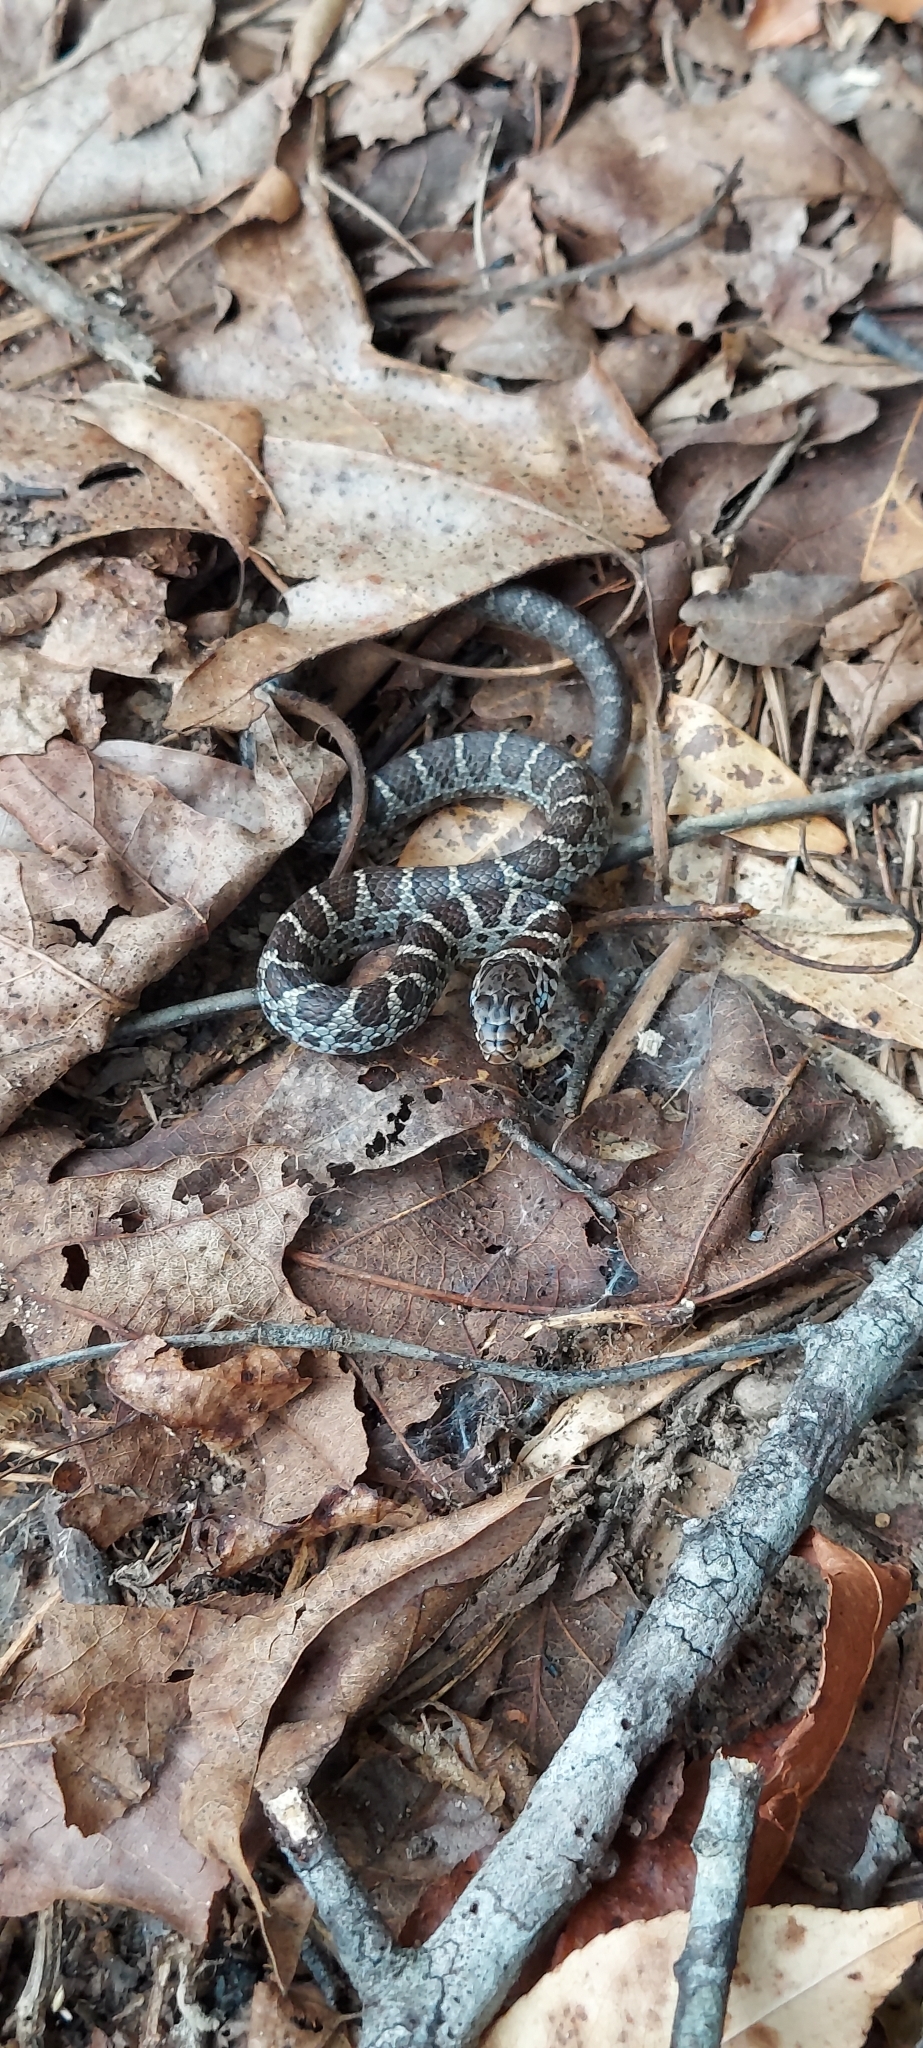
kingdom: Animalia
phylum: Chordata
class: Squamata
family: Colubridae
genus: Coluber
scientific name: Coluber constrictor
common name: Eastern racer
